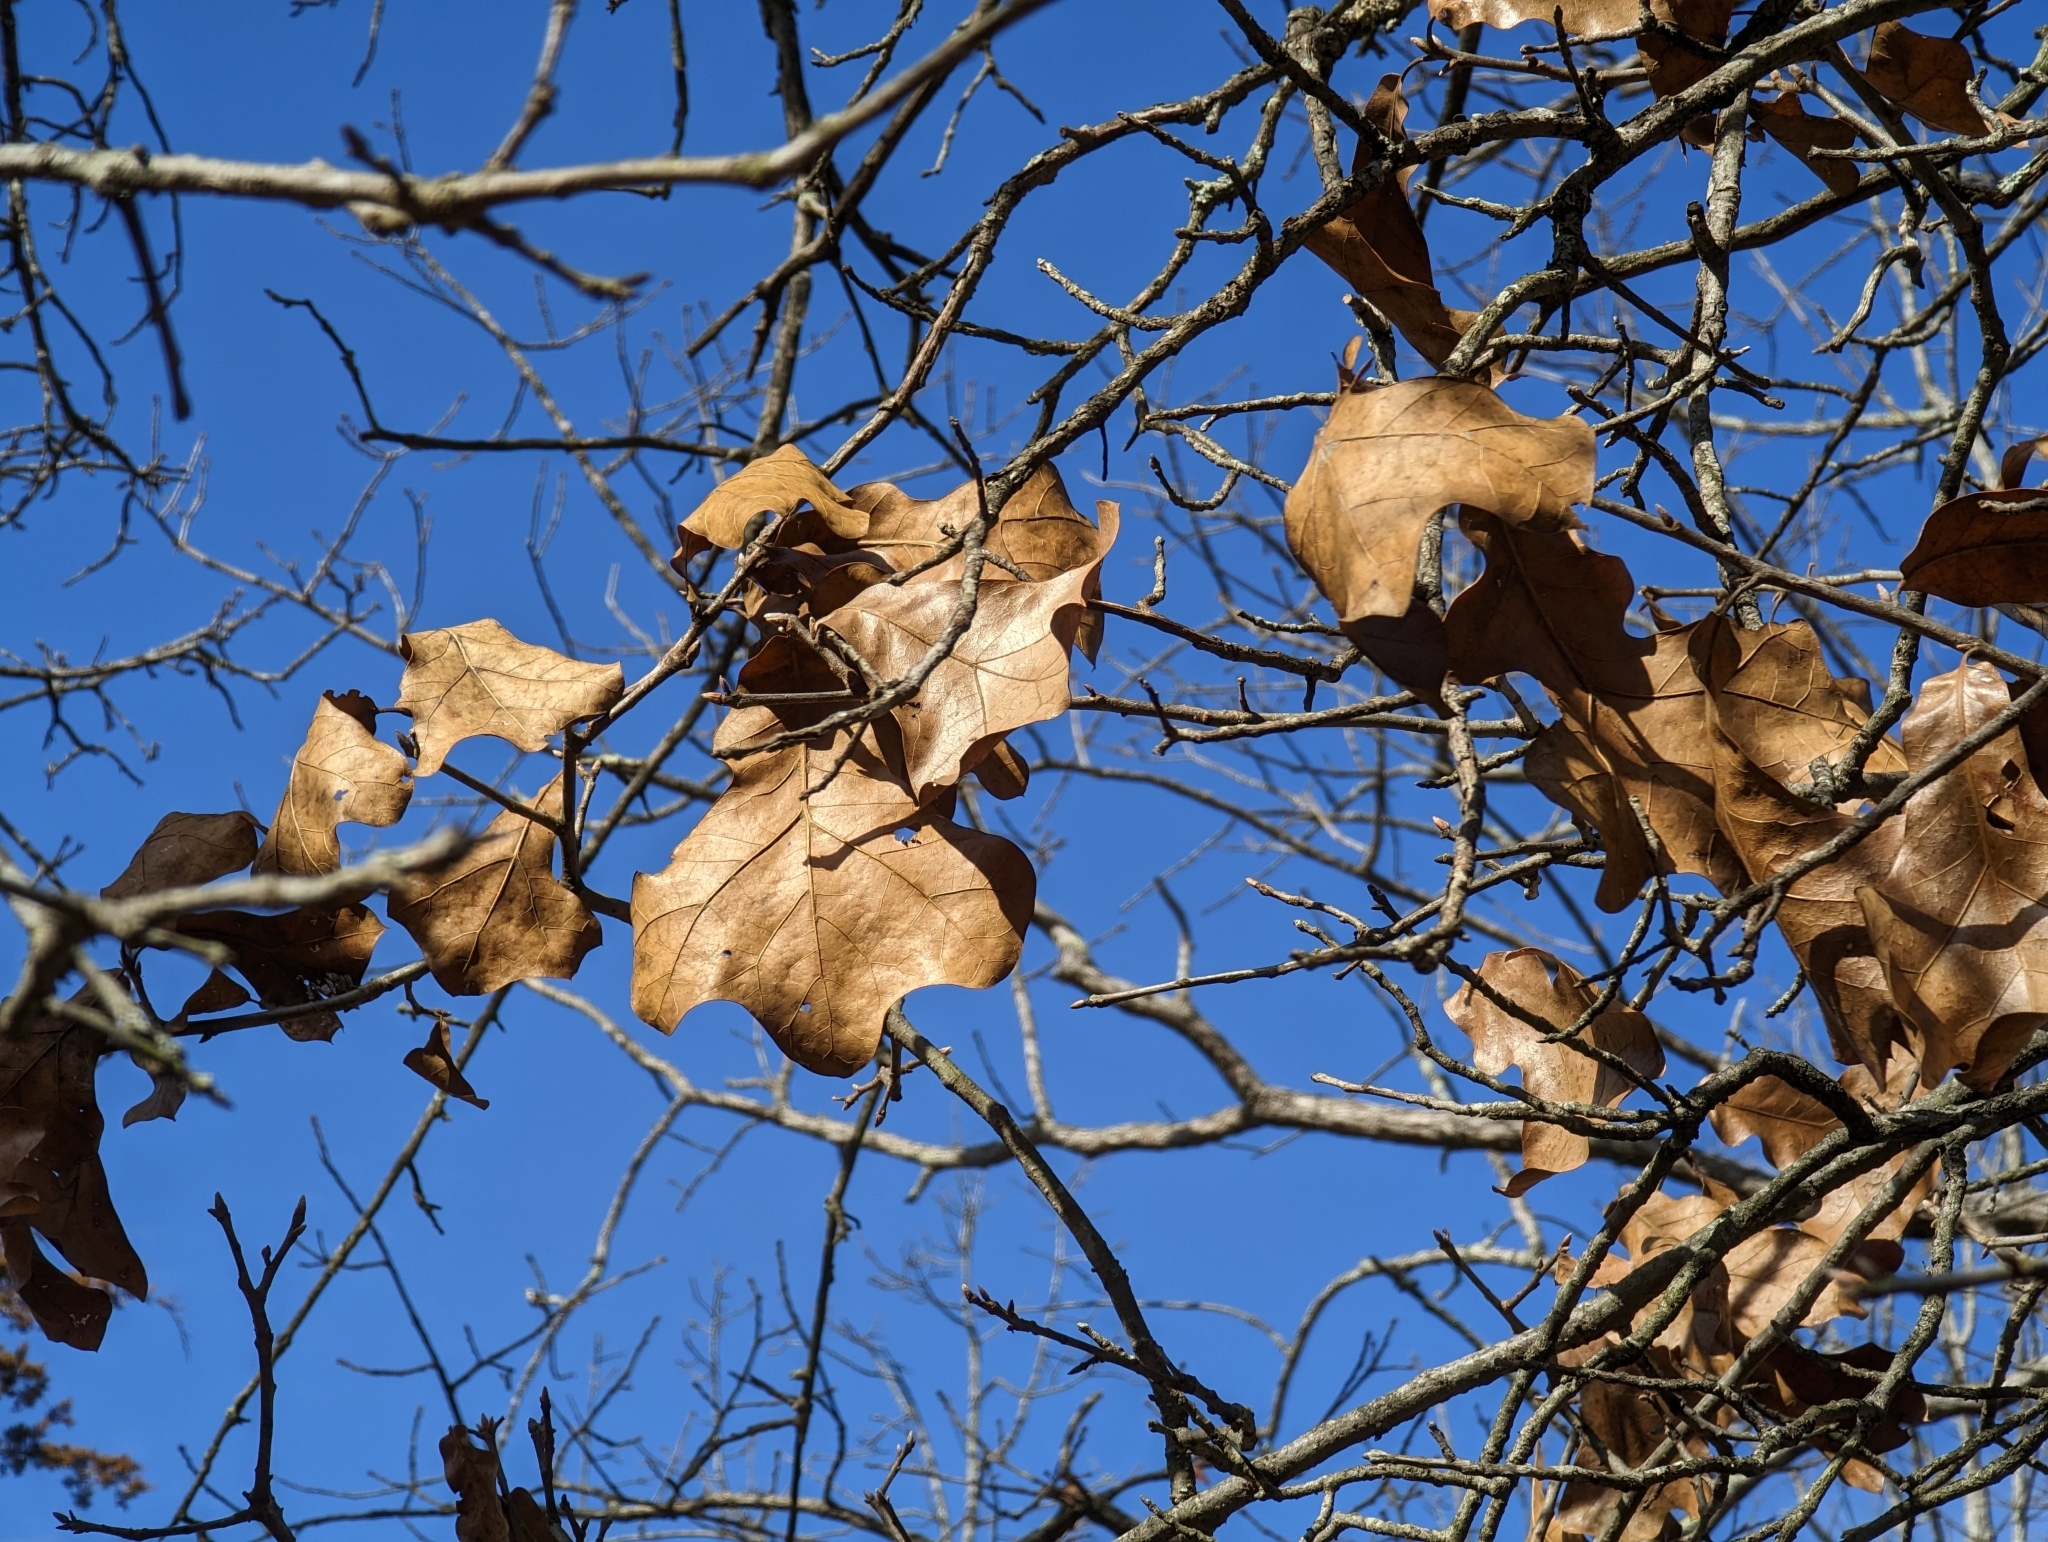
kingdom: Plantae
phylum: Tracheophyta
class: Magnoliopsida
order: Fagales
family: Fagaceae
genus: Quercus
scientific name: Quercus marilandica
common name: Blackjack oak
